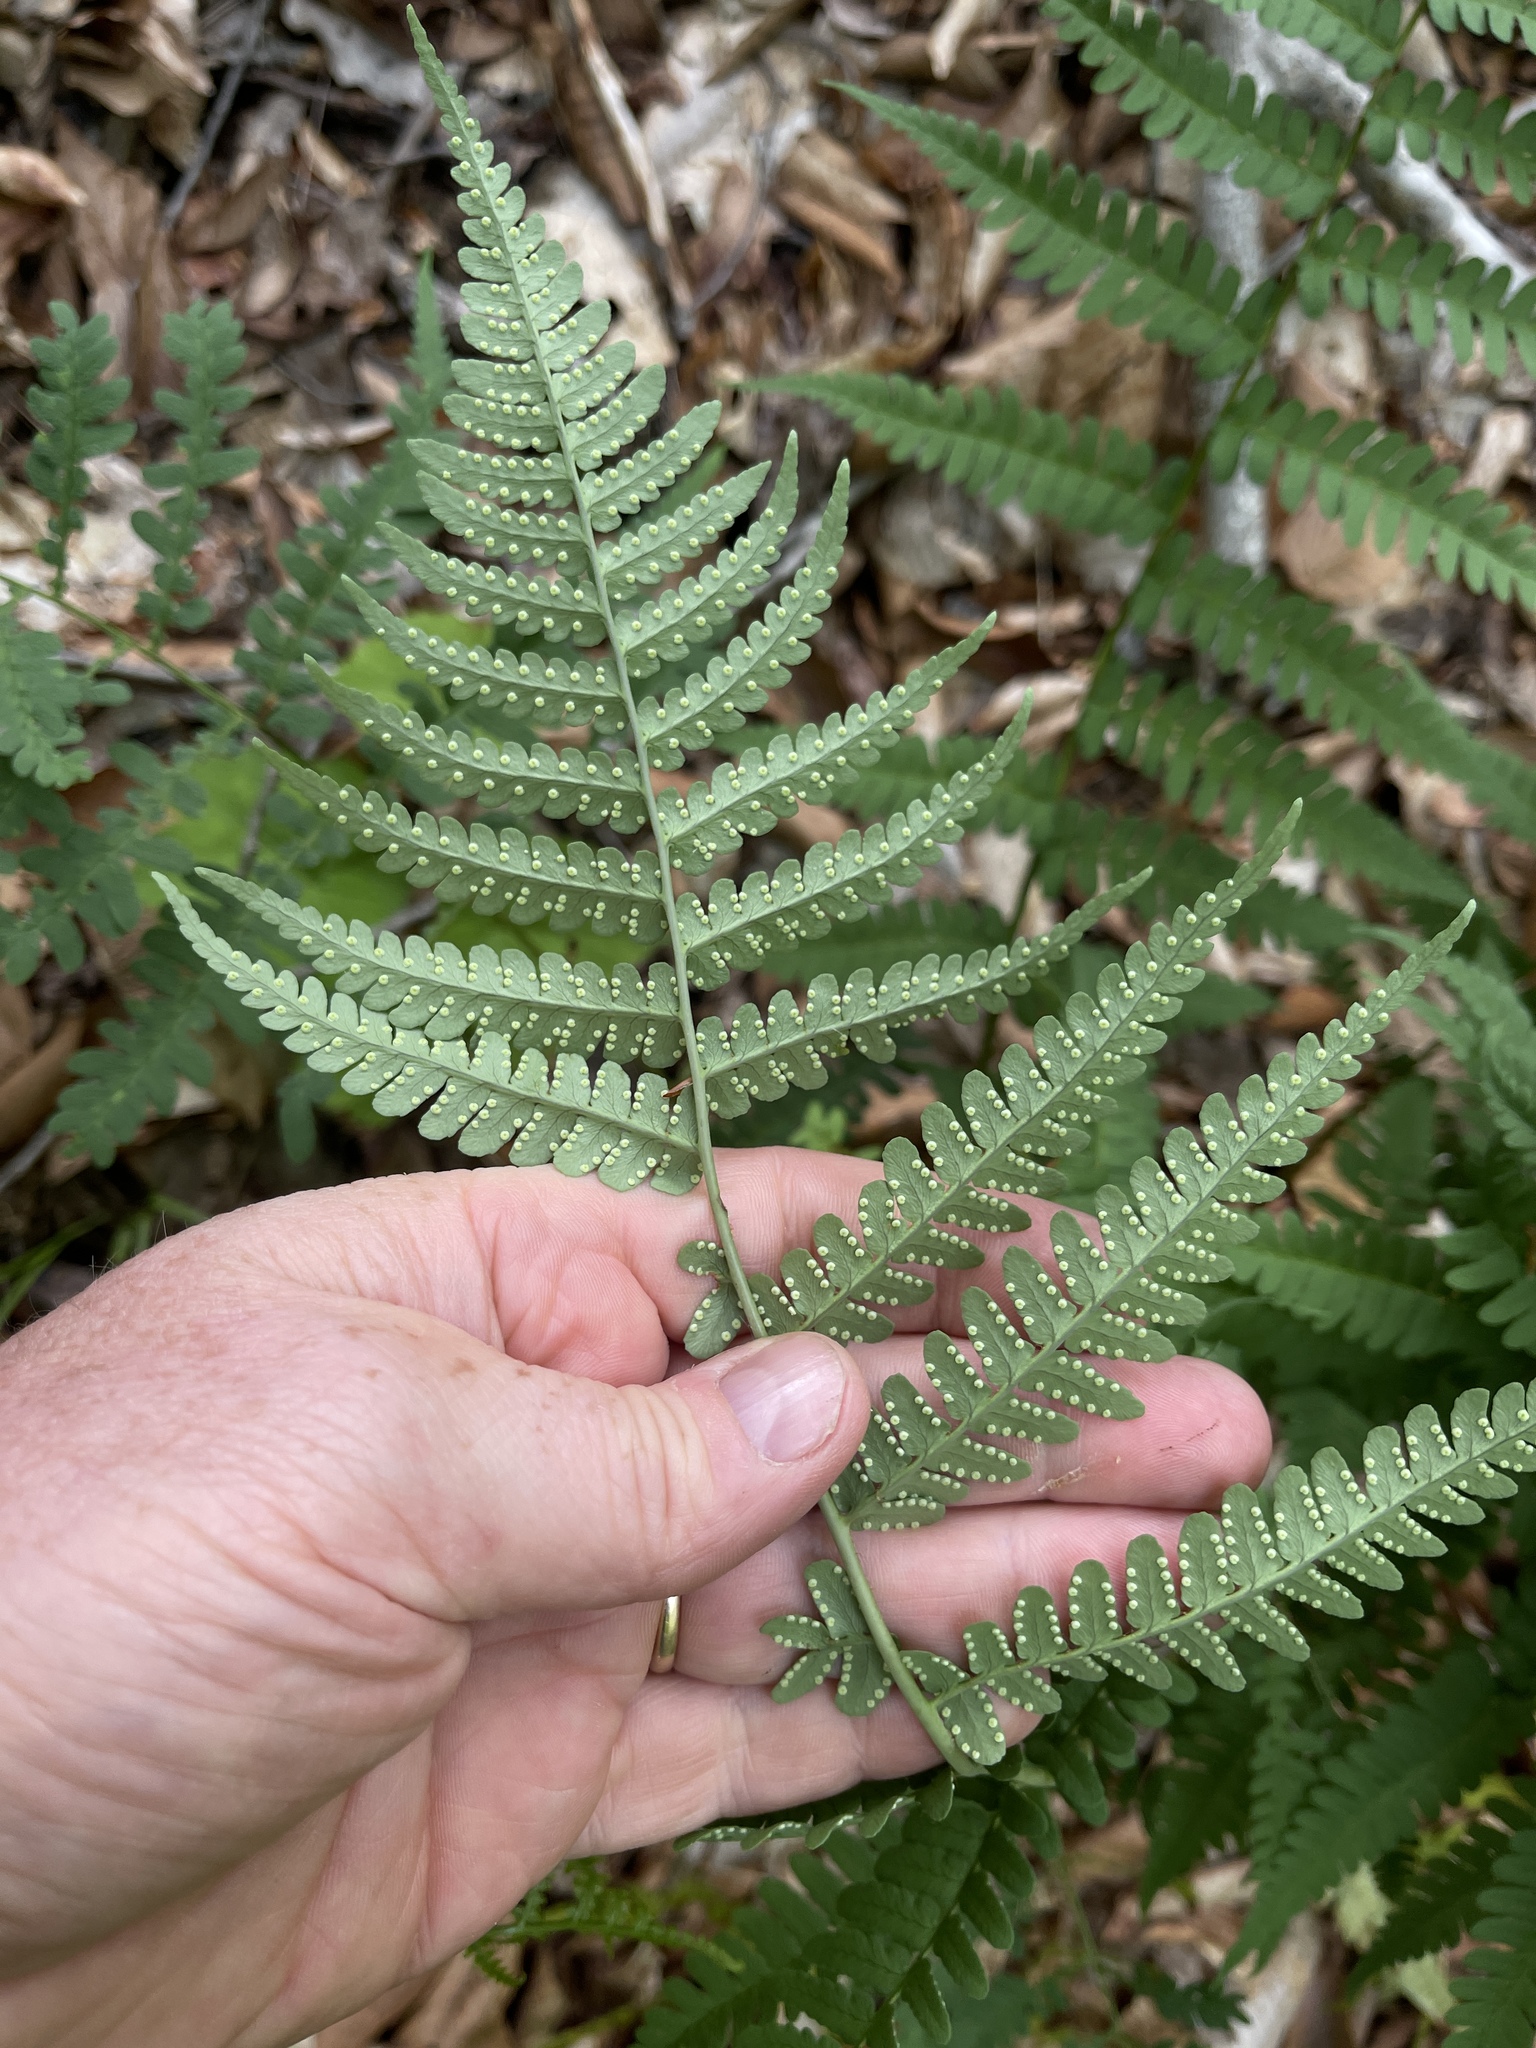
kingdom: Plantae
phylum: Tracheophyta
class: Polypodiopsida
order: Polypodiales
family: Dryopteridaceae
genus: Dryopteris
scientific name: Dryopteris marginalis
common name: Marginal wood fern
